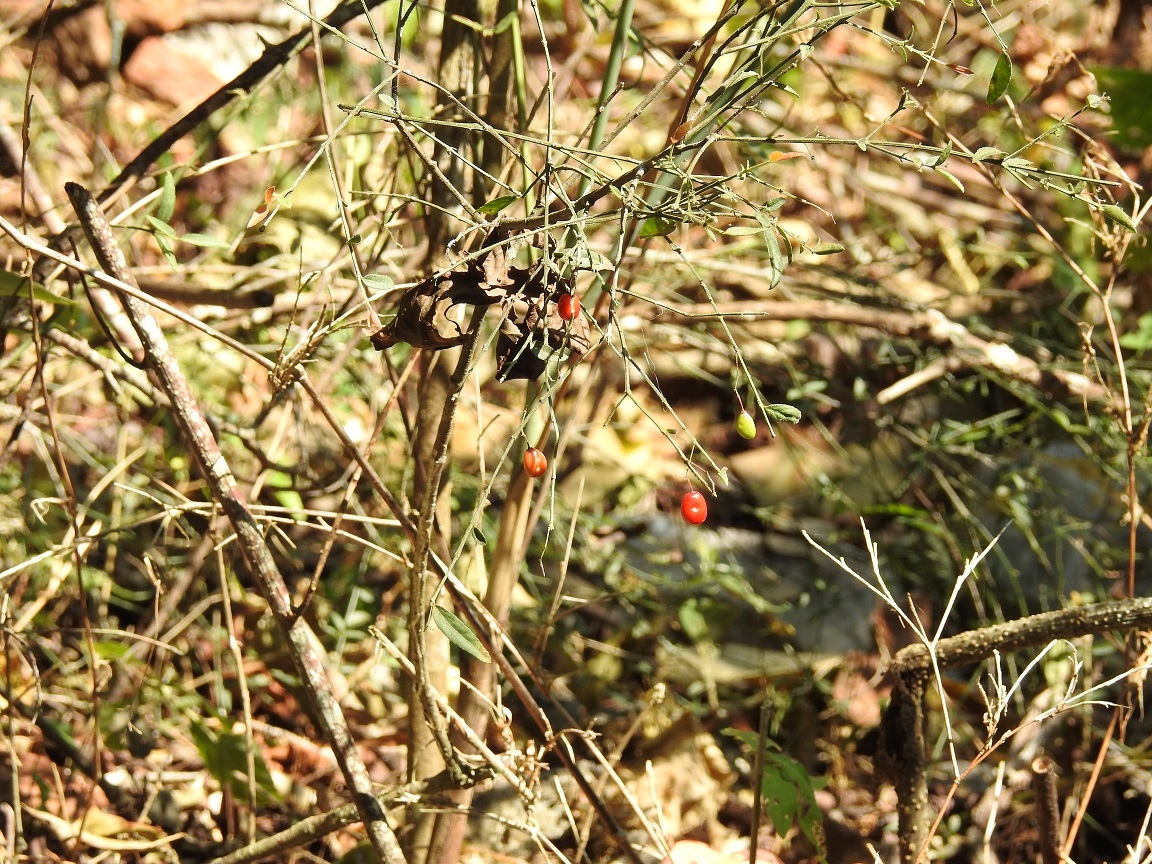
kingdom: Plantae
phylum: Tracheophyta
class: Magnoliopsida
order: Celastrales
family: Celastraceae
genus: Crossopetalum
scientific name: Crossopetalum uragoga
